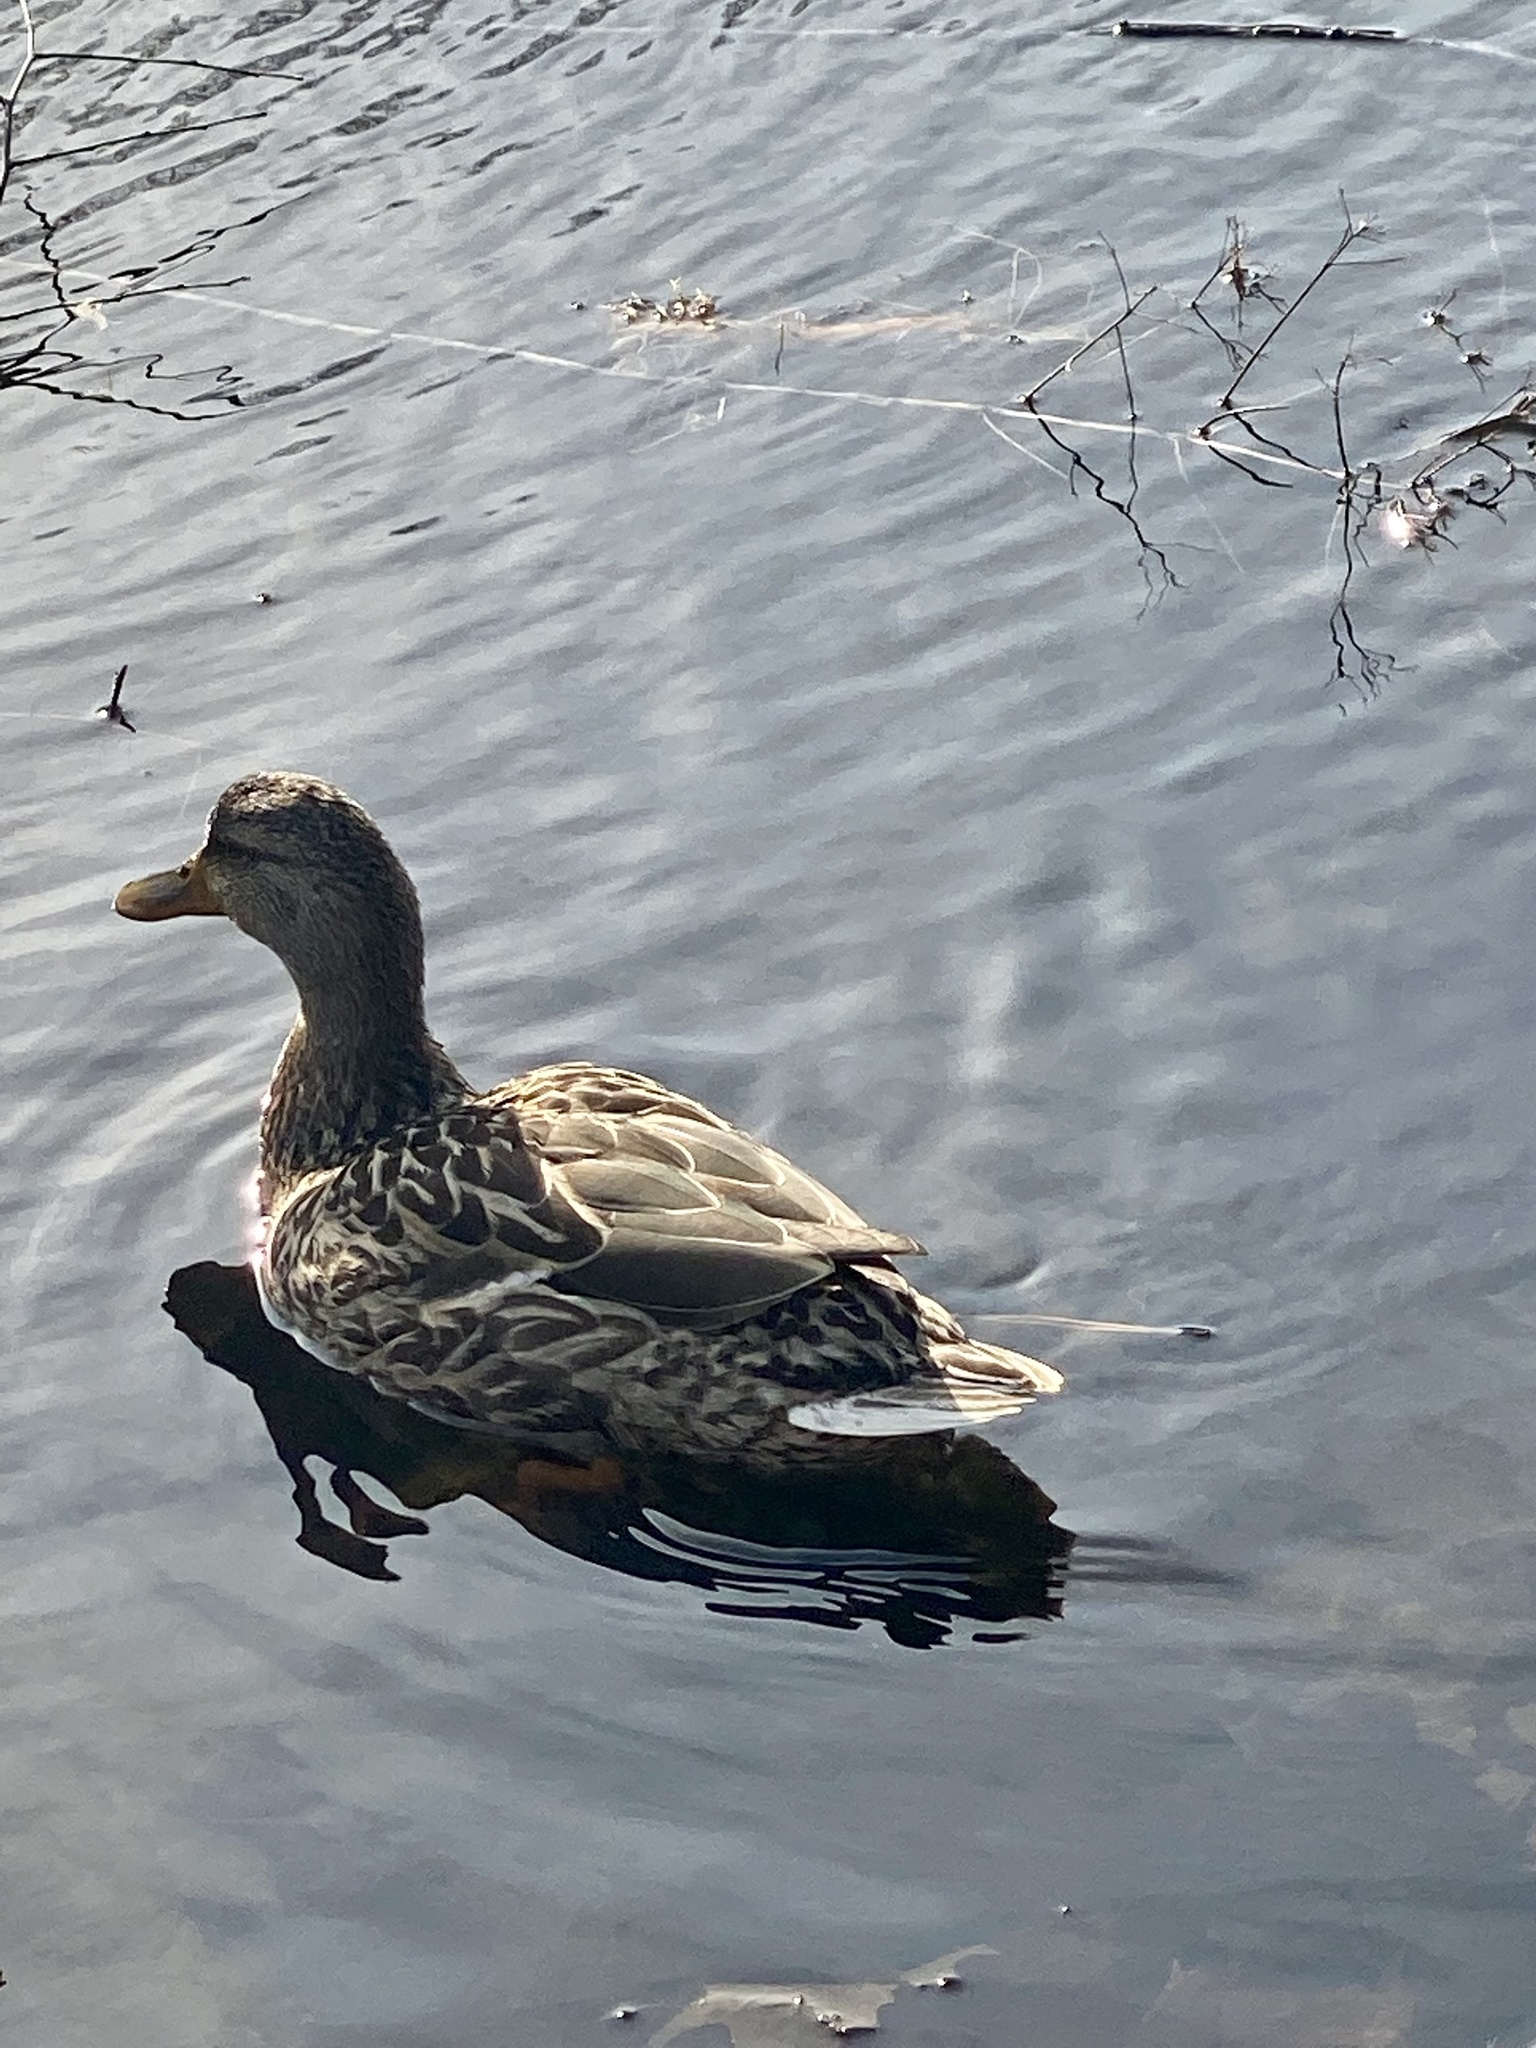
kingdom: Animalia
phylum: Chordata
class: Aves
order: Anseriformes
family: Anatidae
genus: Anas
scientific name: Anas platyrhynchos
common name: Mallard
